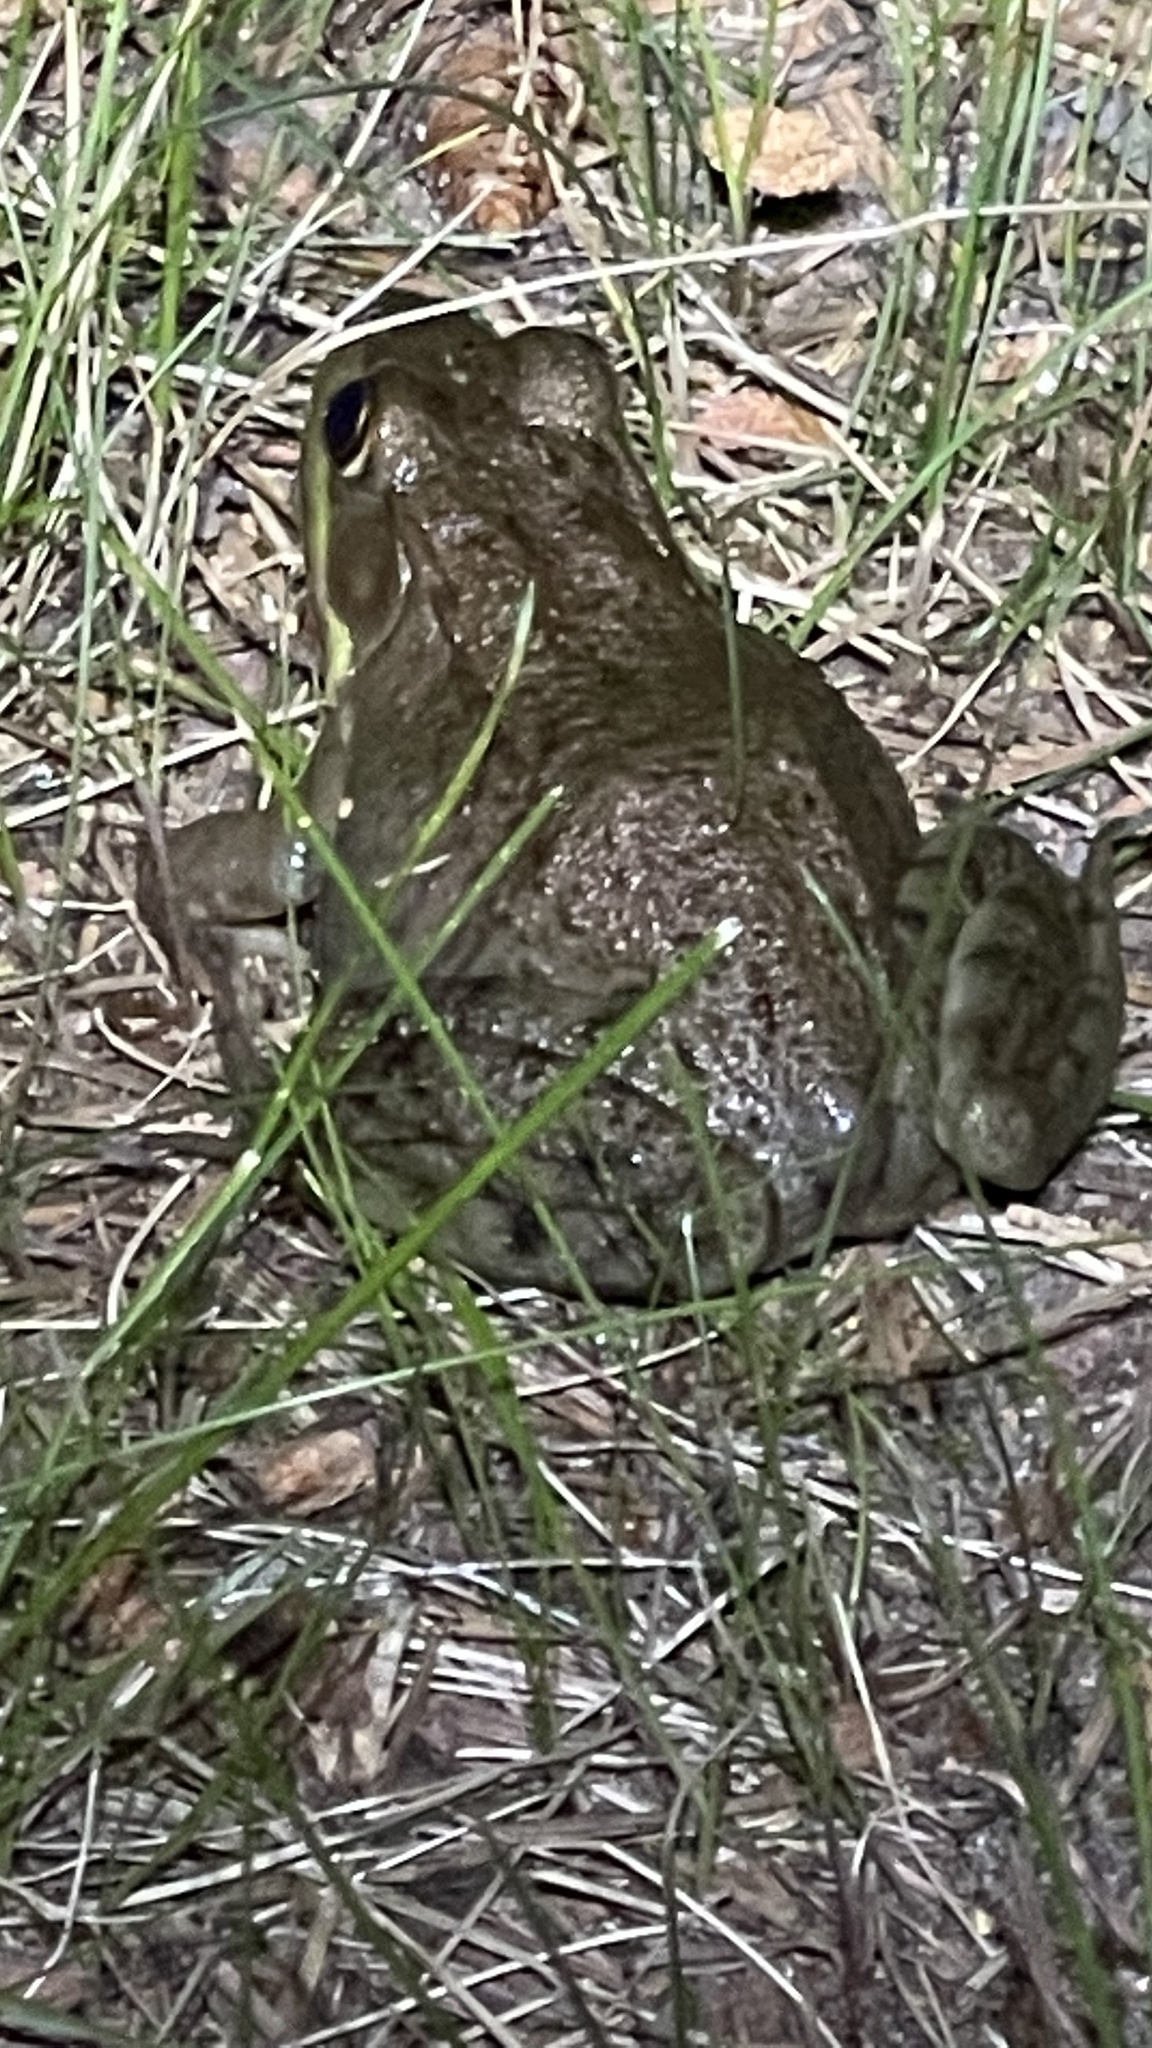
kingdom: Animalia
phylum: Chordata
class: Amphibia
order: Anura
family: Ranidae
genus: Lithobates
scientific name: Lithobates clamitans
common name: Green frog
